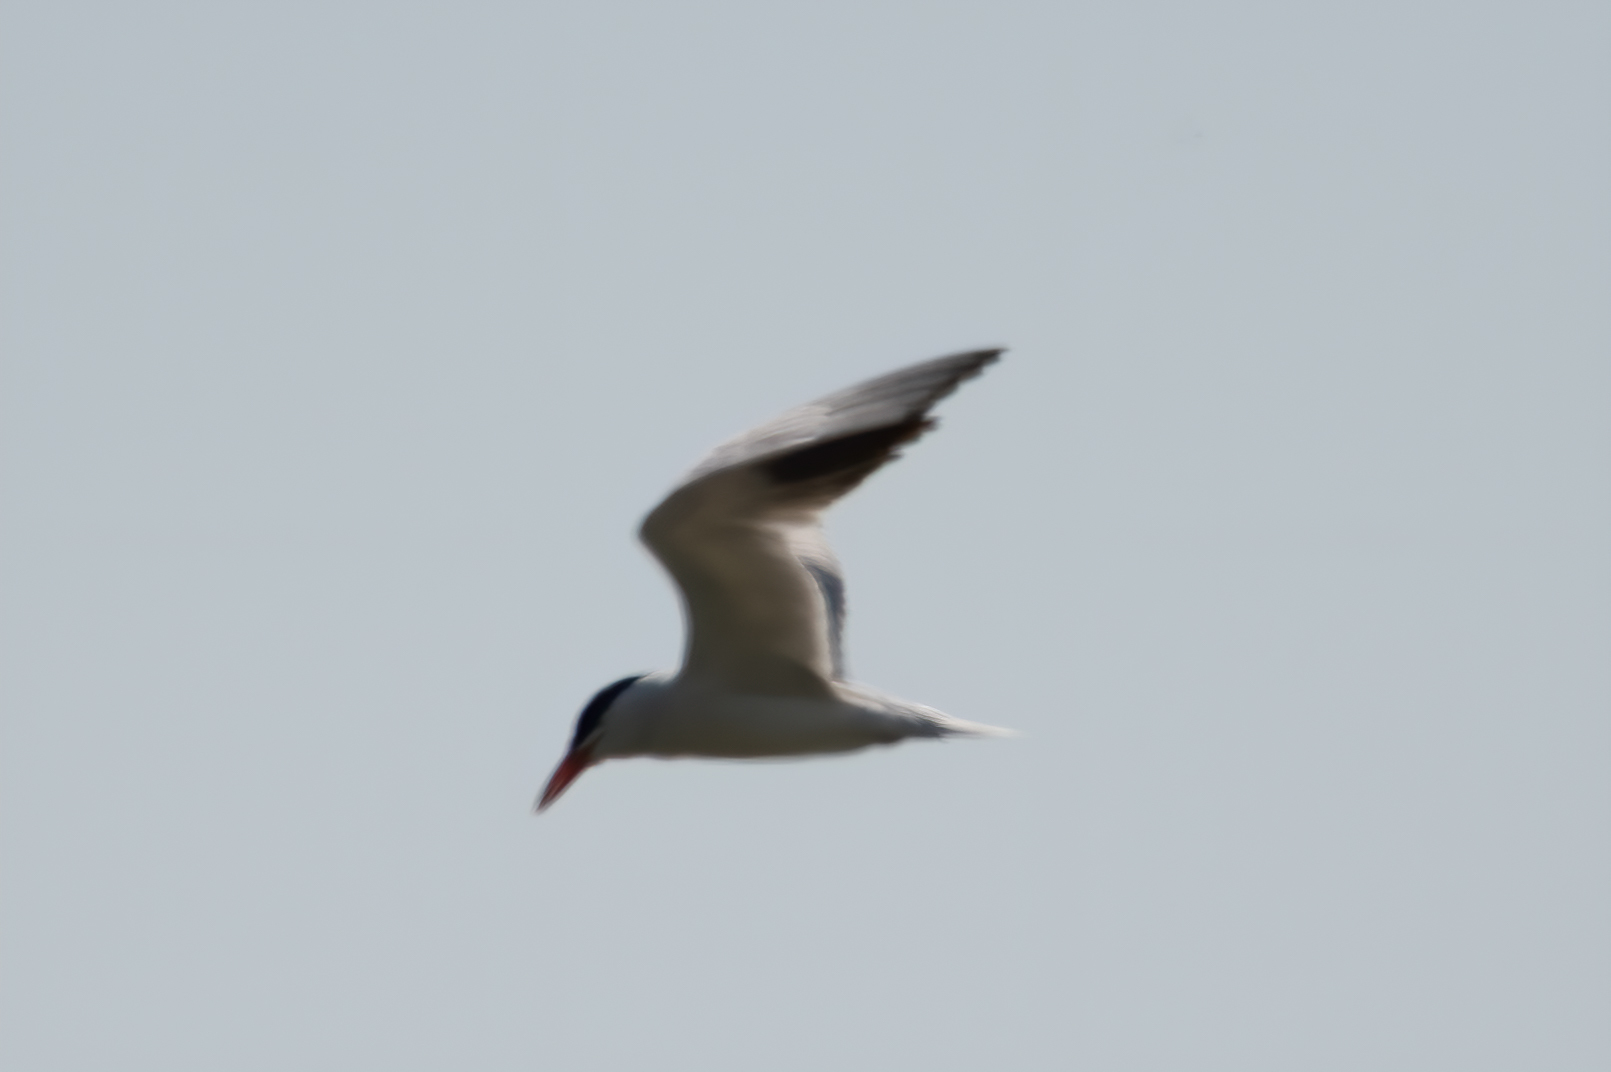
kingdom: Animalia
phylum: Chordata
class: Aves
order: Charadriiformes
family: Laridae
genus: Hydroprogne
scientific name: Hydroprogne caspia
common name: Caspian tern
